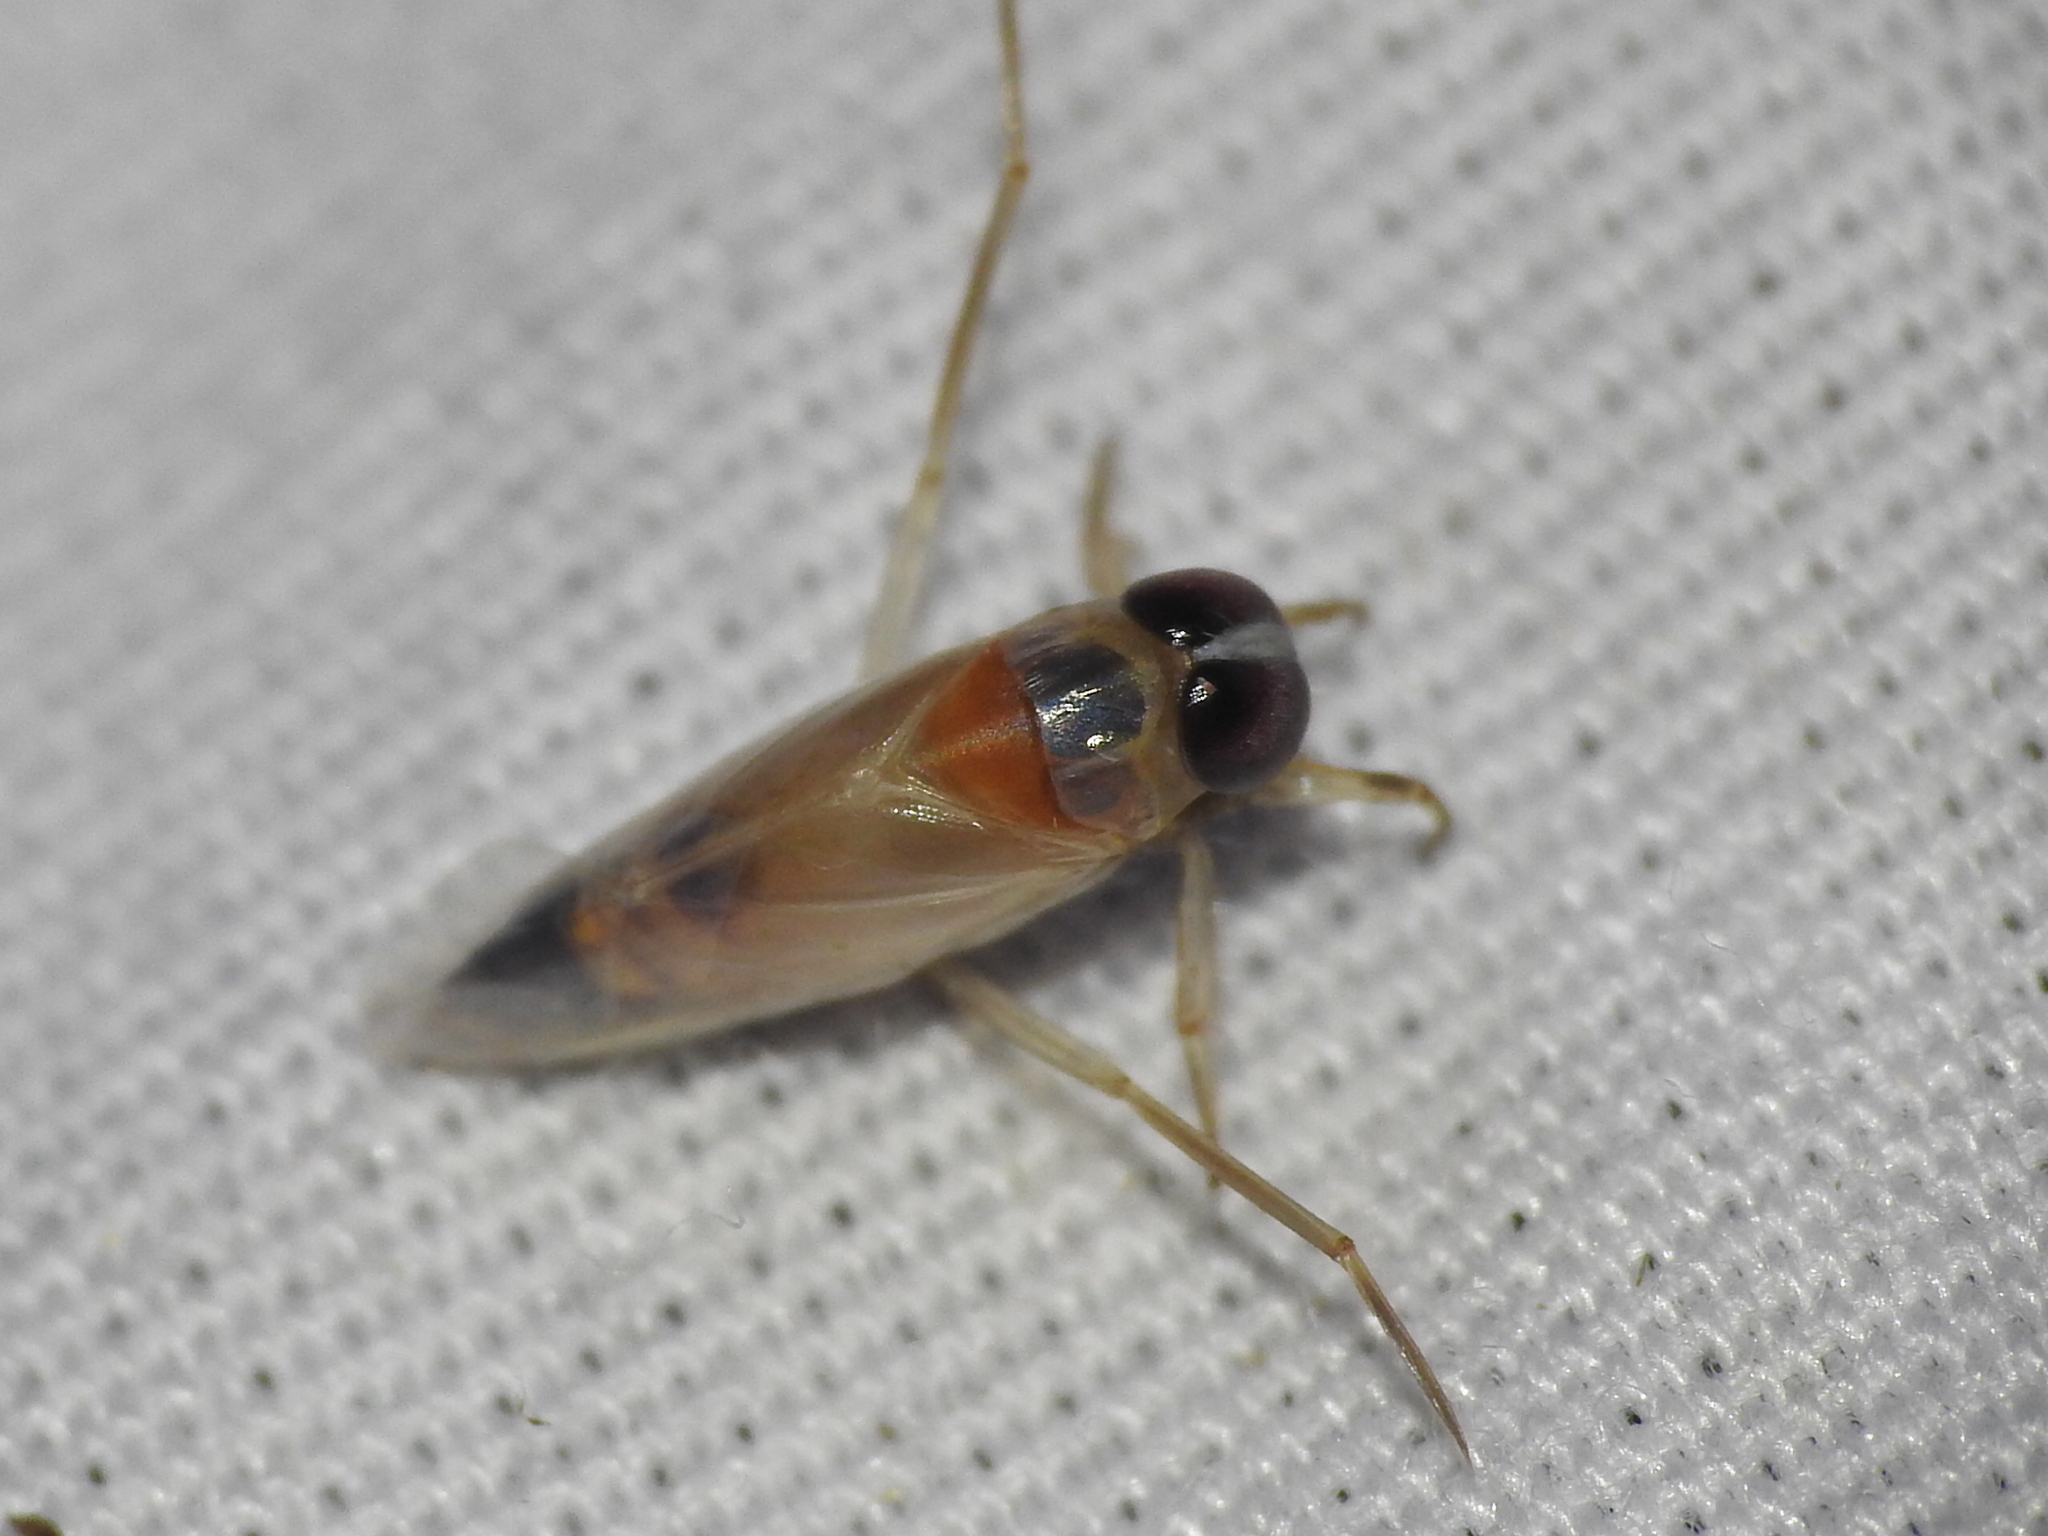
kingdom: Animalia
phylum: Arthropoda
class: Insecta
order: Hemiptera
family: Notonectidae
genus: Buenoa
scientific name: Buenoa
